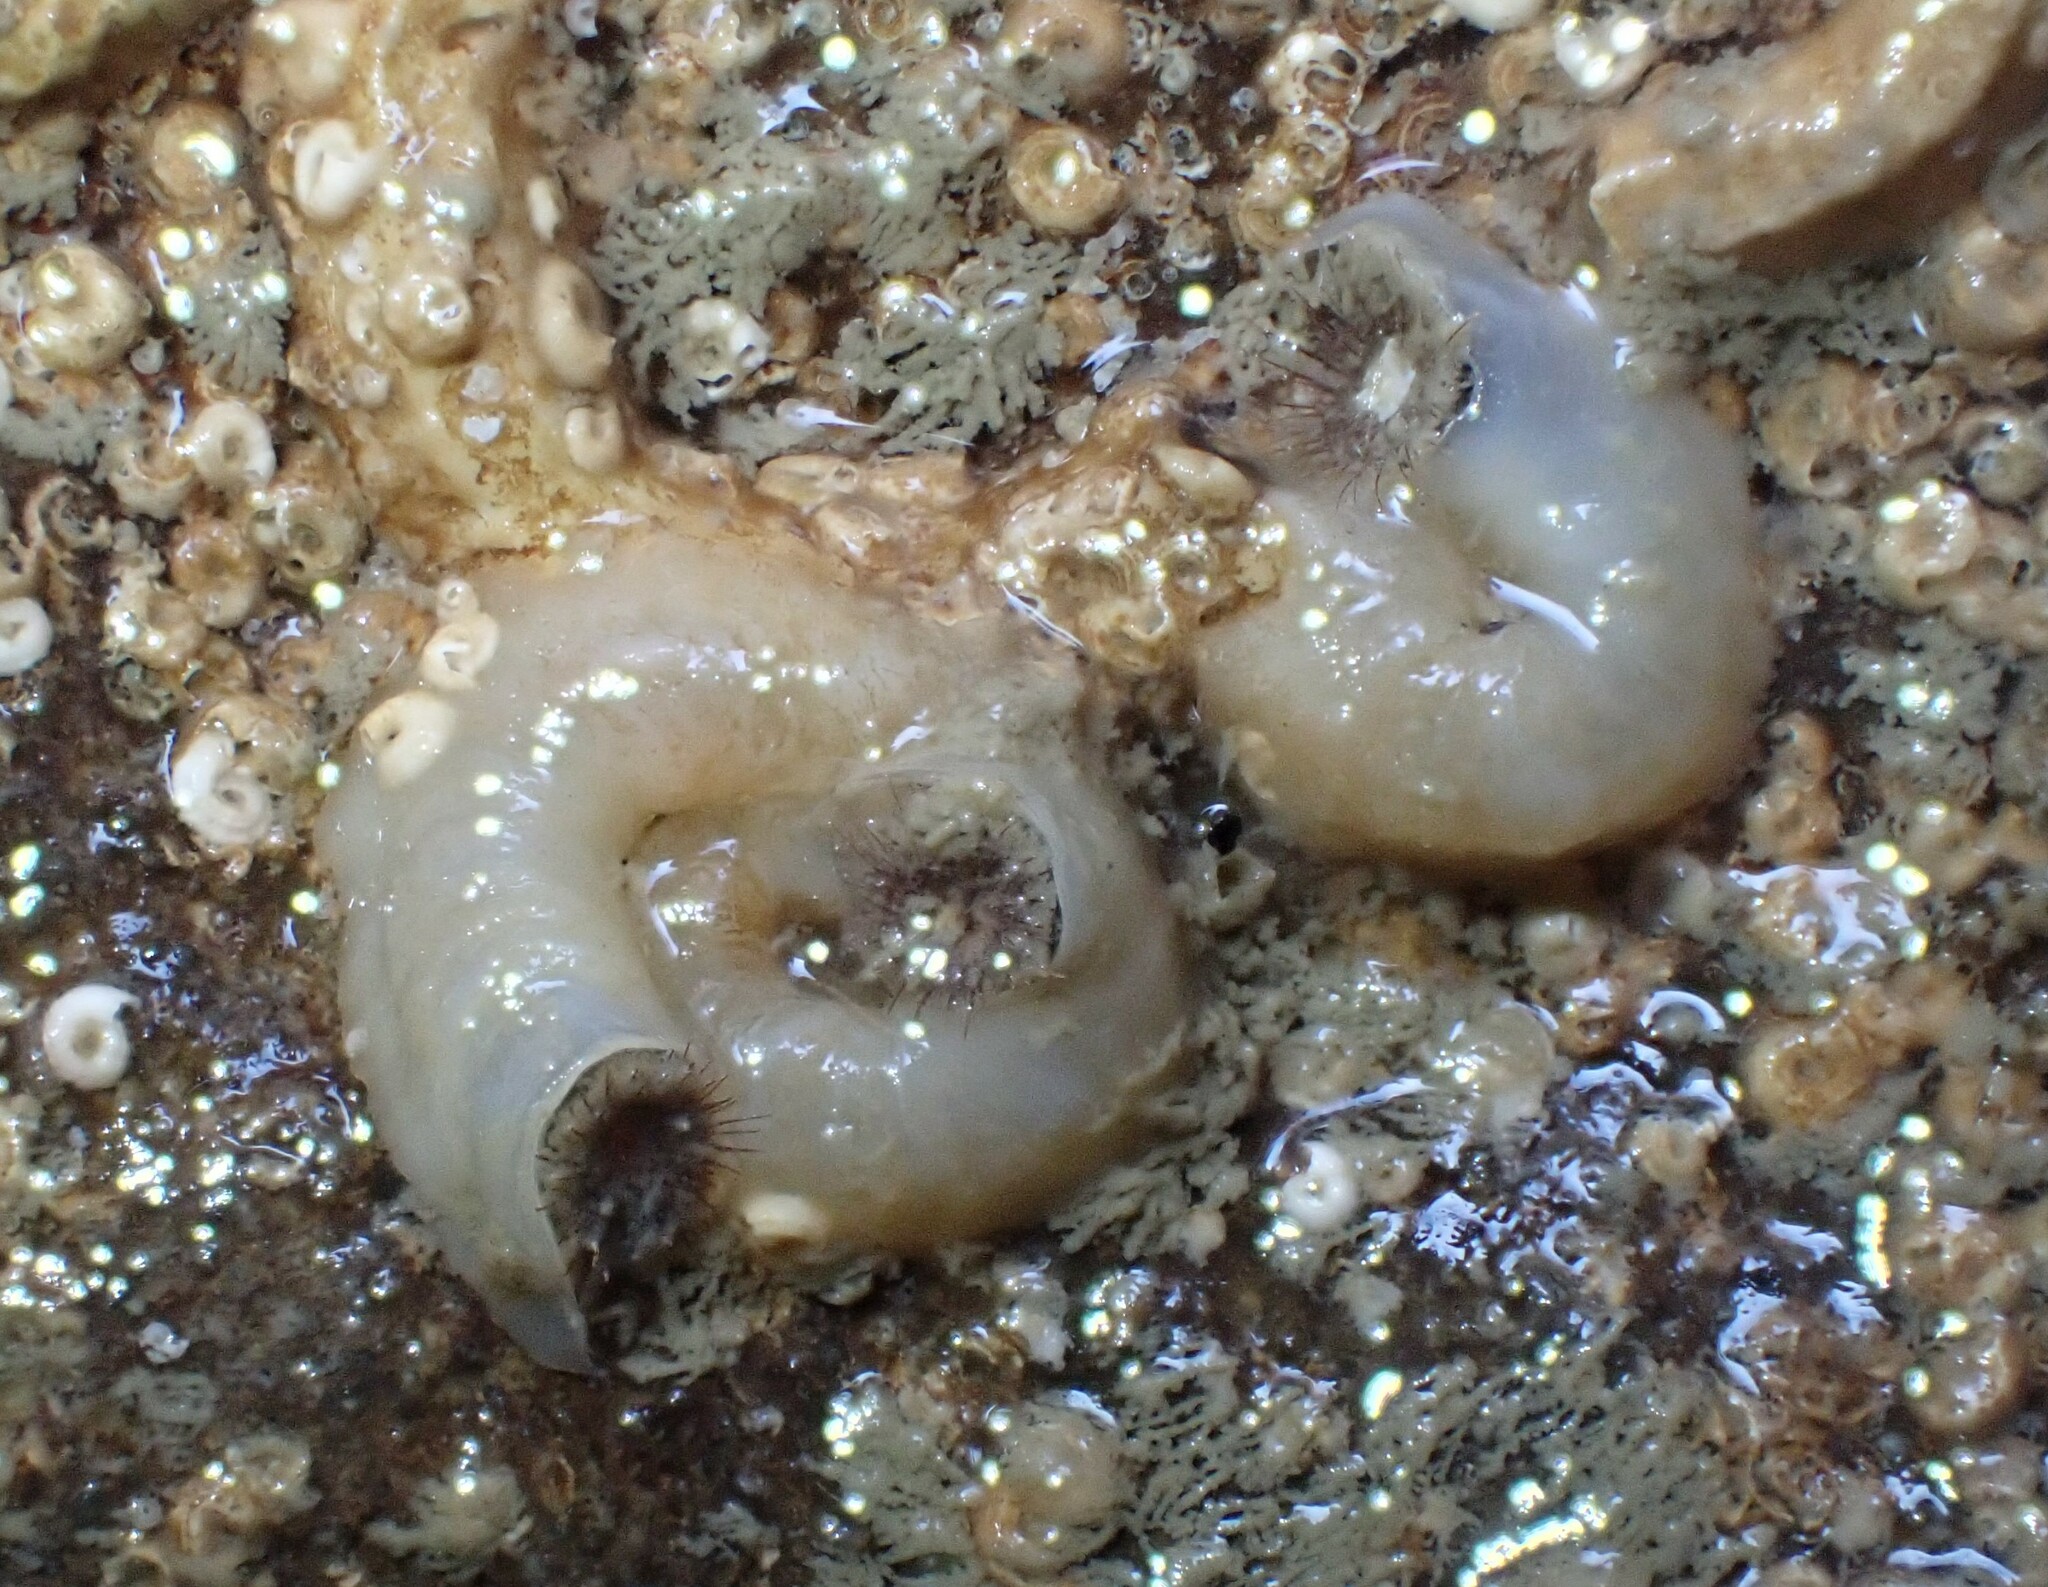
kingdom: Animalia
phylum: Mollusca
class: Gastropoda
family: Siliquariidae
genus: Stephopoma
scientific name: Stephopoma roseum
